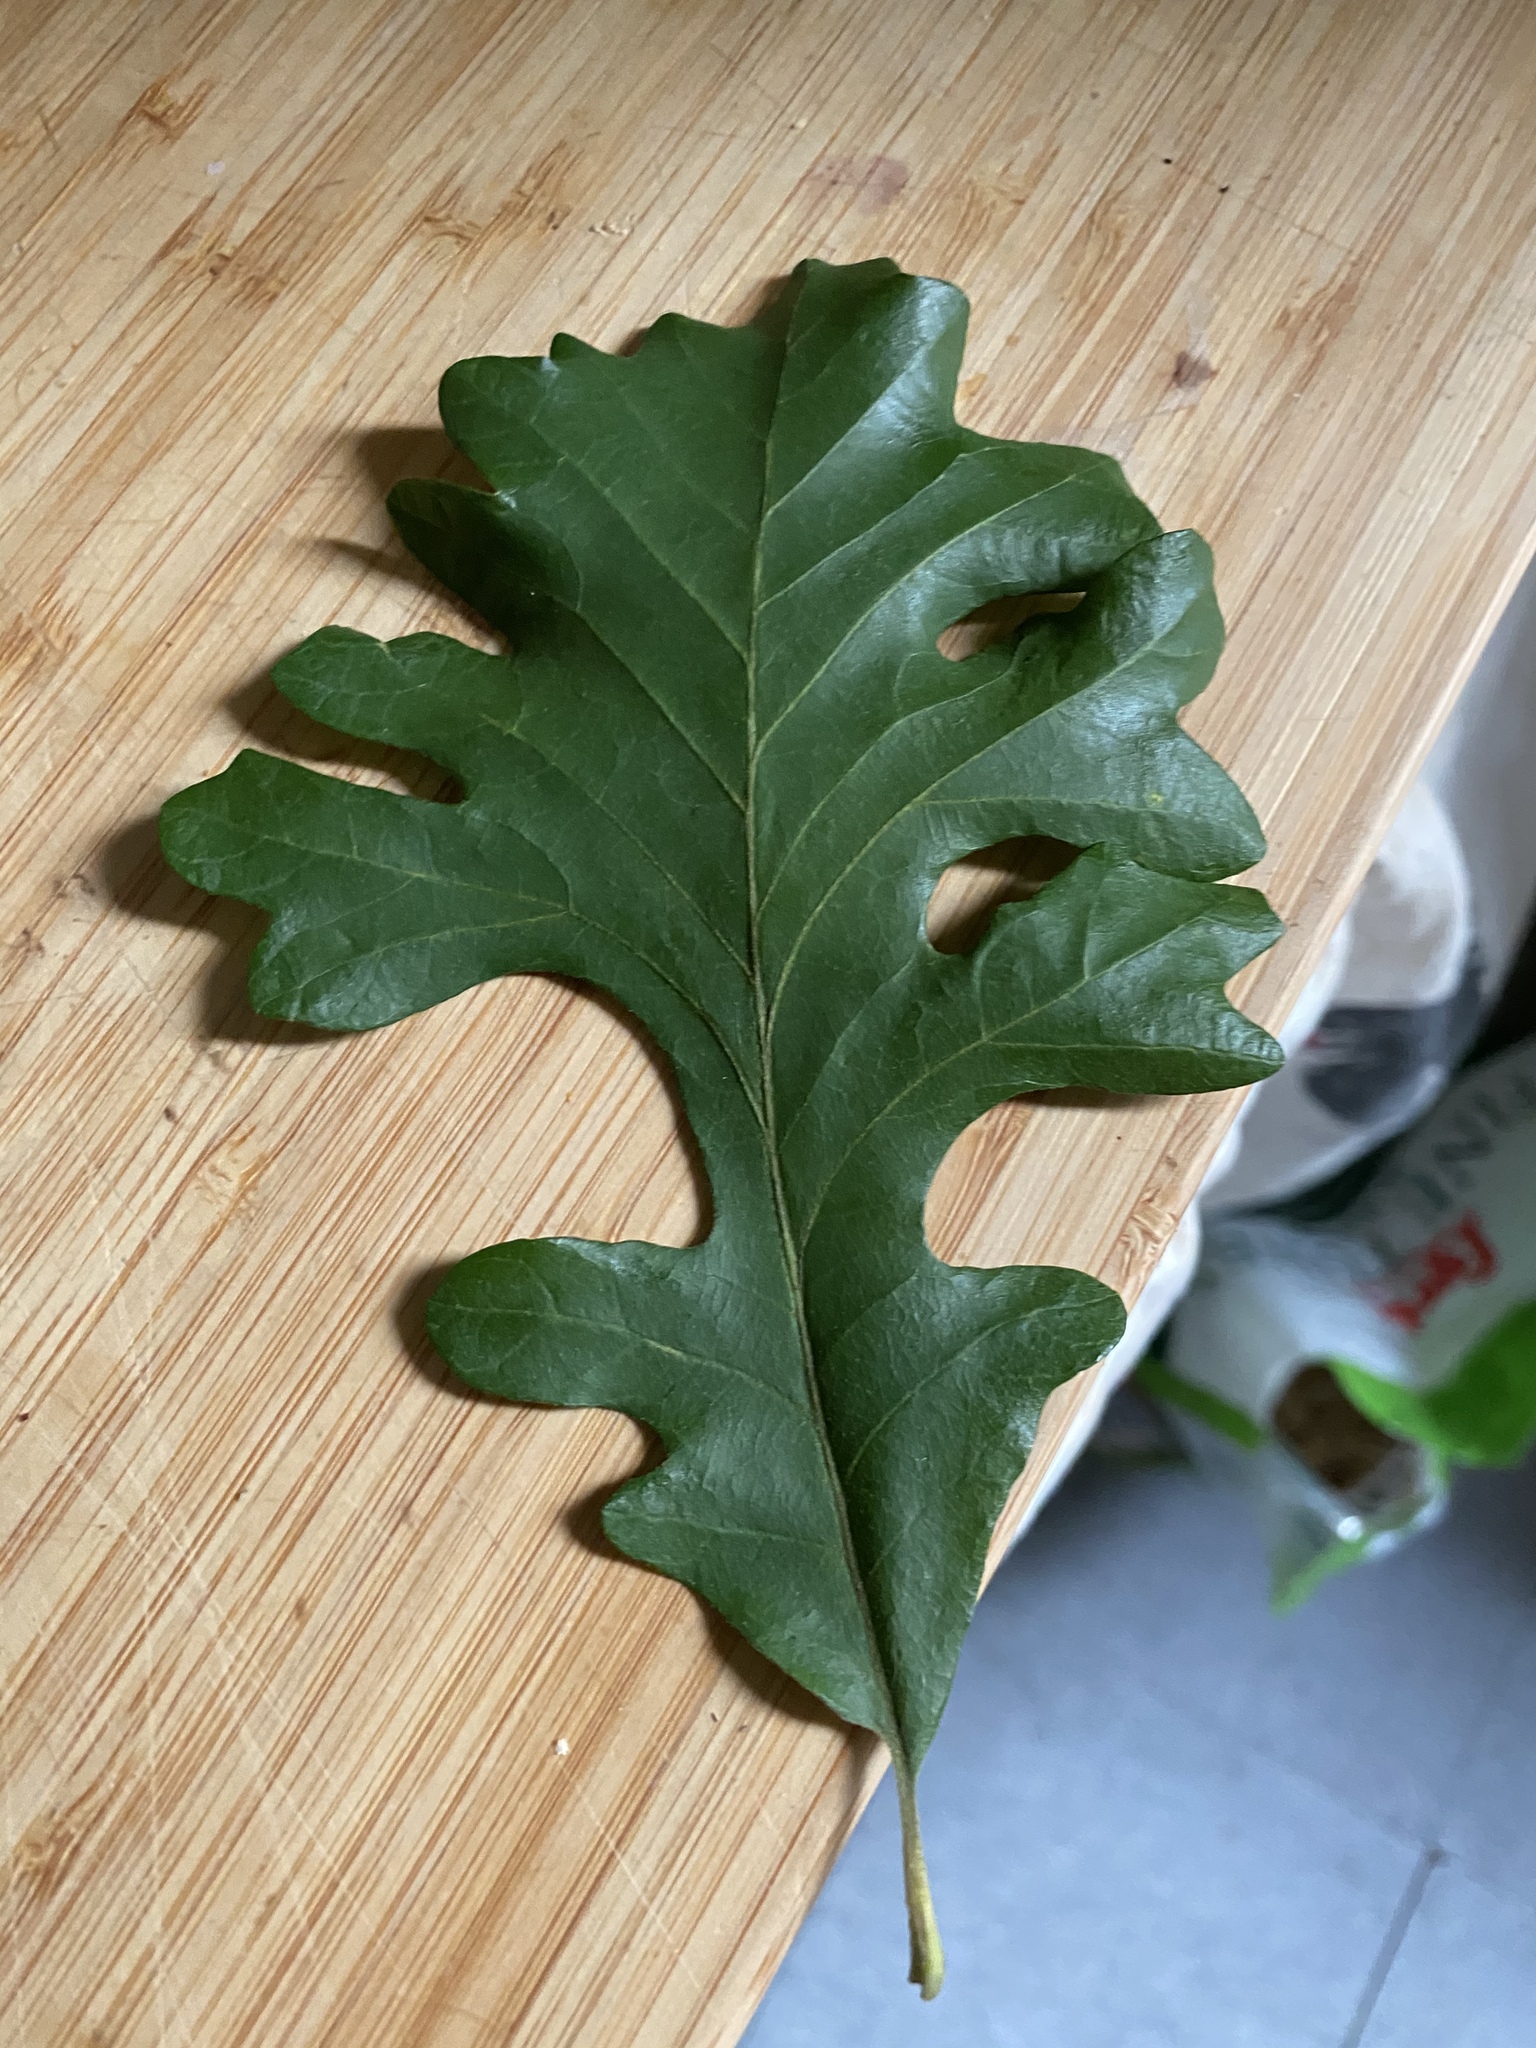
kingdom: Plantae
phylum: Tracheophyta
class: Magnoliopsida
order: Fagales
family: Fagaceae
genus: Quercus
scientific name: Quercus macrocarpa
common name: Bur oak
